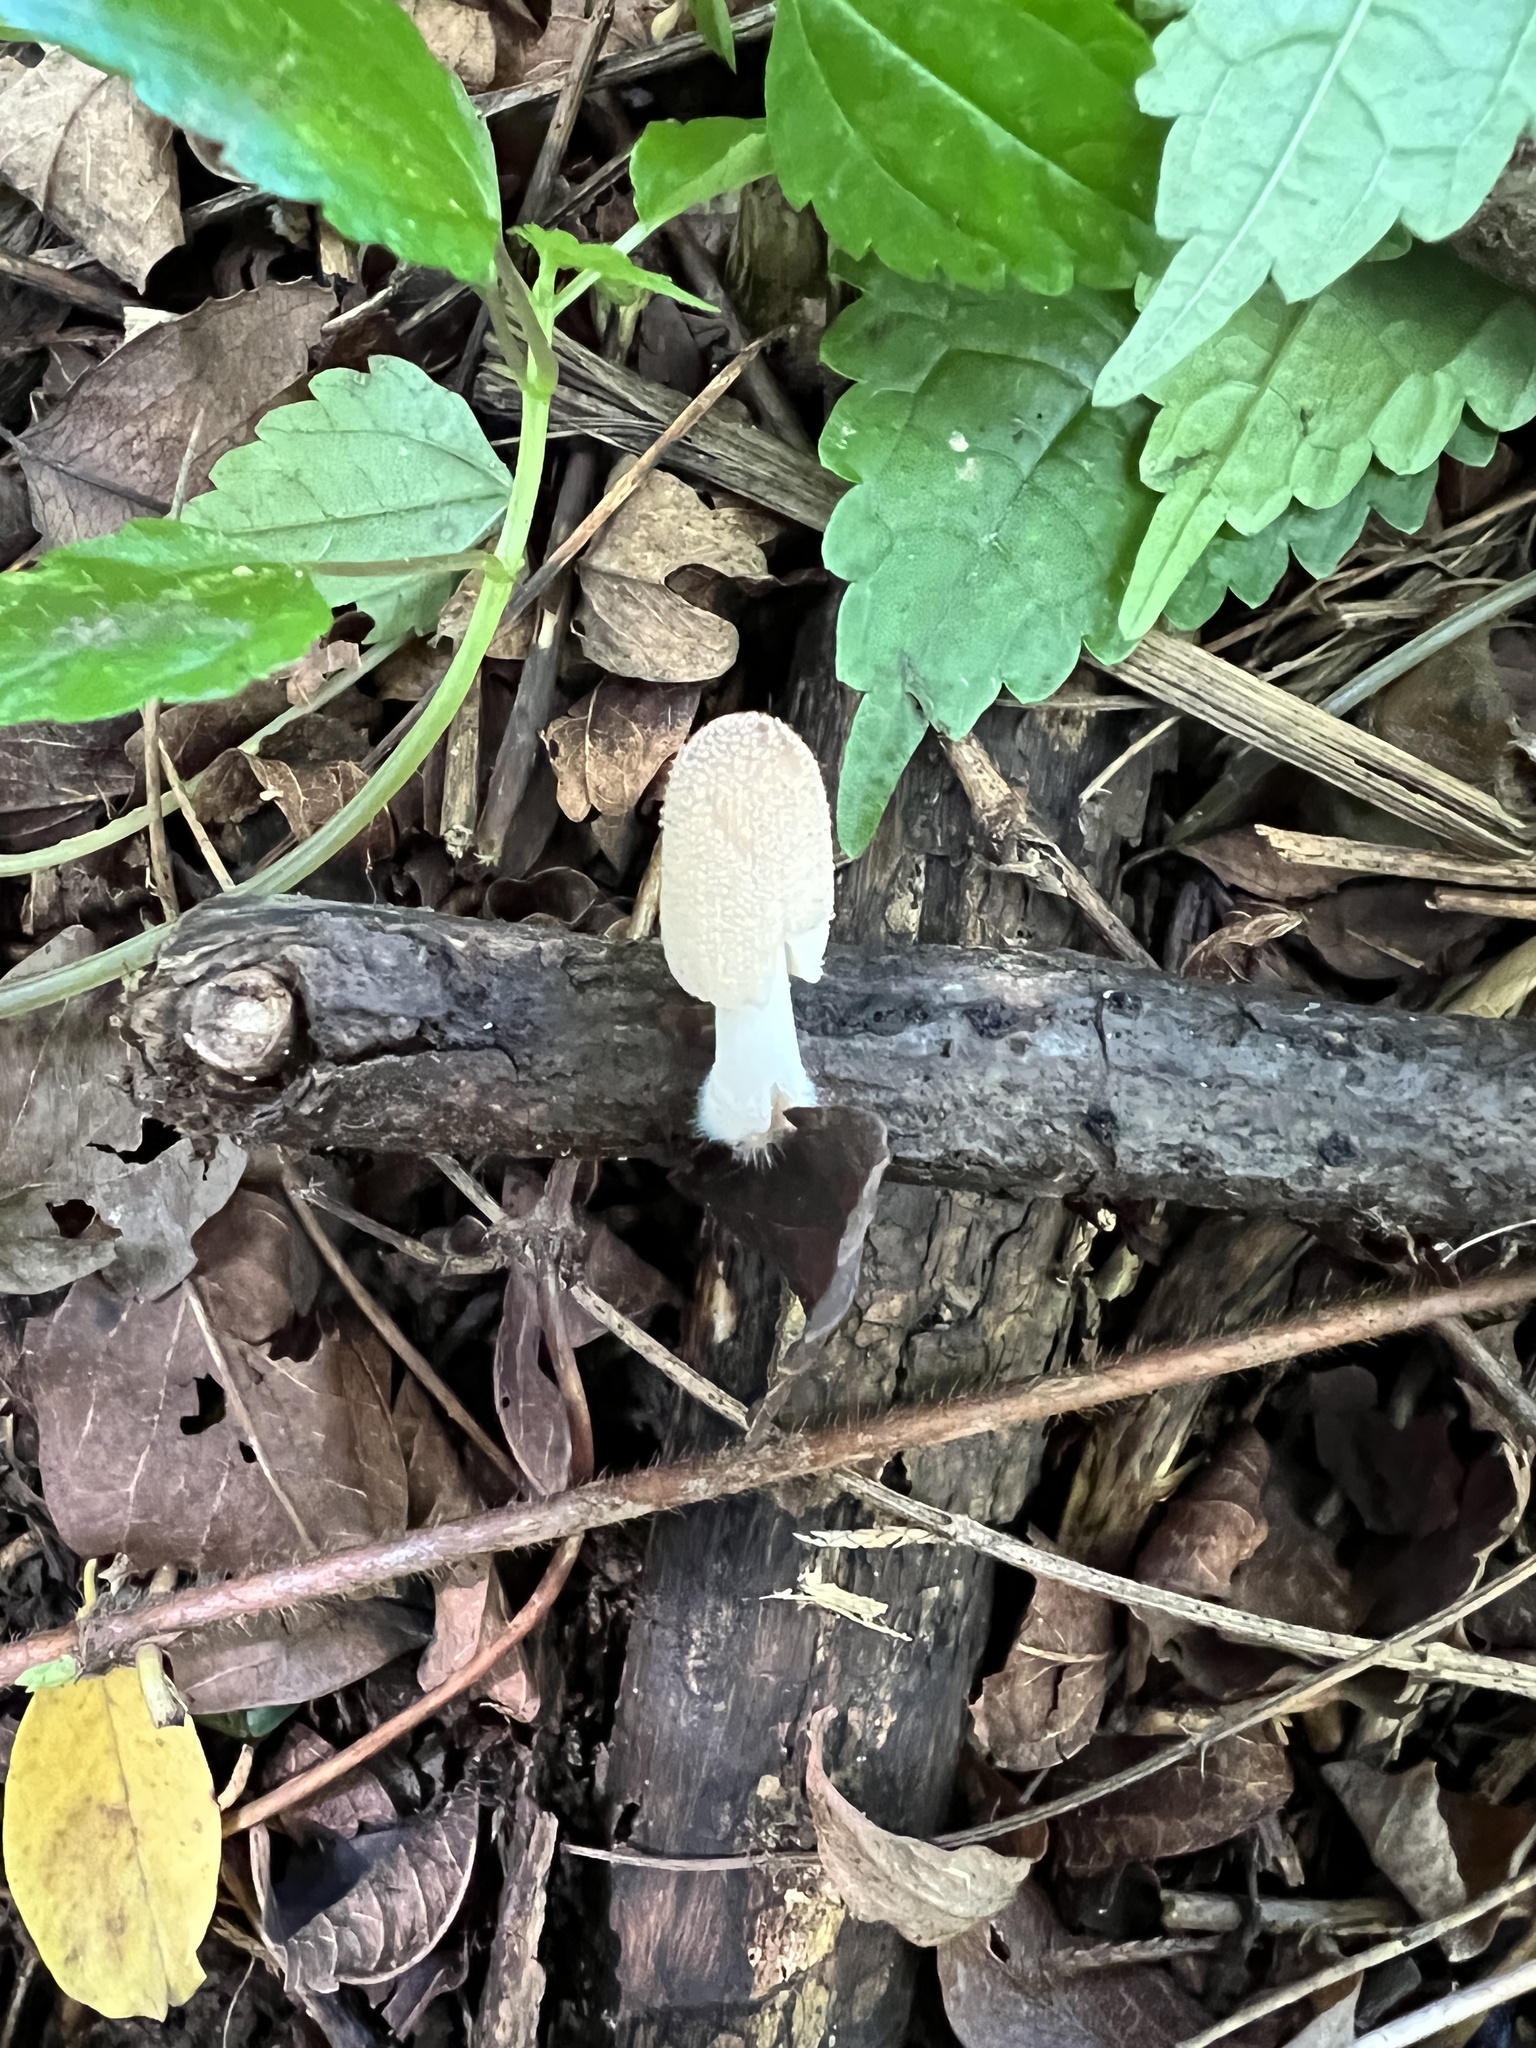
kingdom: Fungi
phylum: Basidiomycota
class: Agaricomycetes
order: Agaricales
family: Psathyrellaceae
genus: Coprinellus
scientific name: Coprinellus radians
